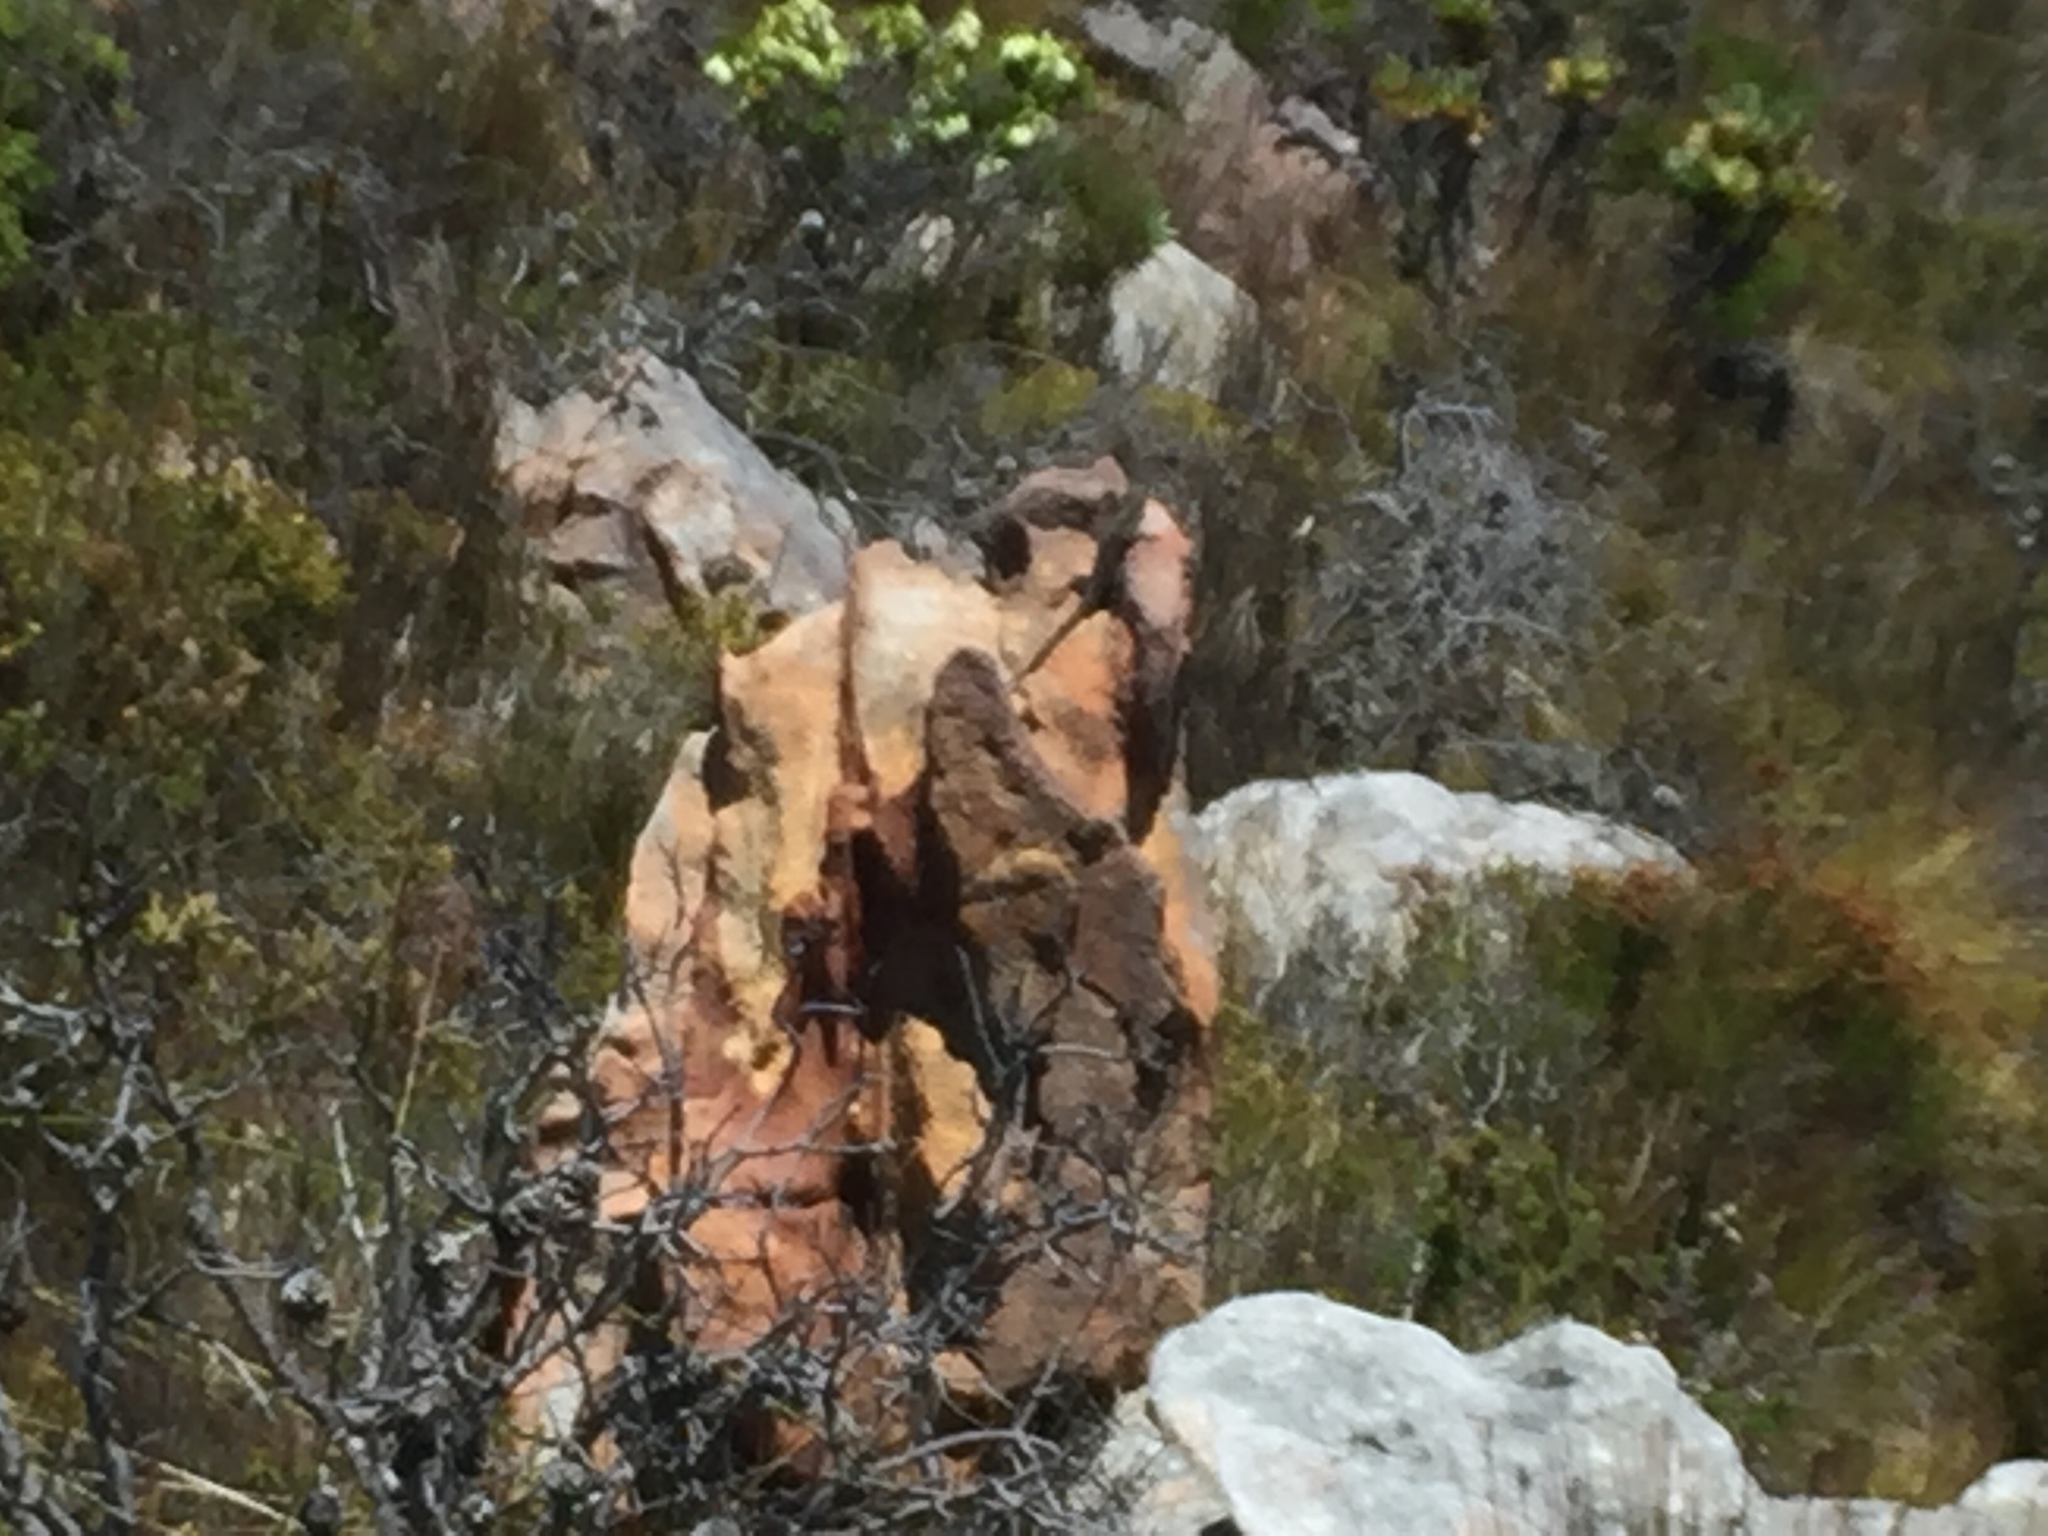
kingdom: Animalia
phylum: Chordata
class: Squamata
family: Agamidae
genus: Agama
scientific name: Agama atra
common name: Southern african rock agama
